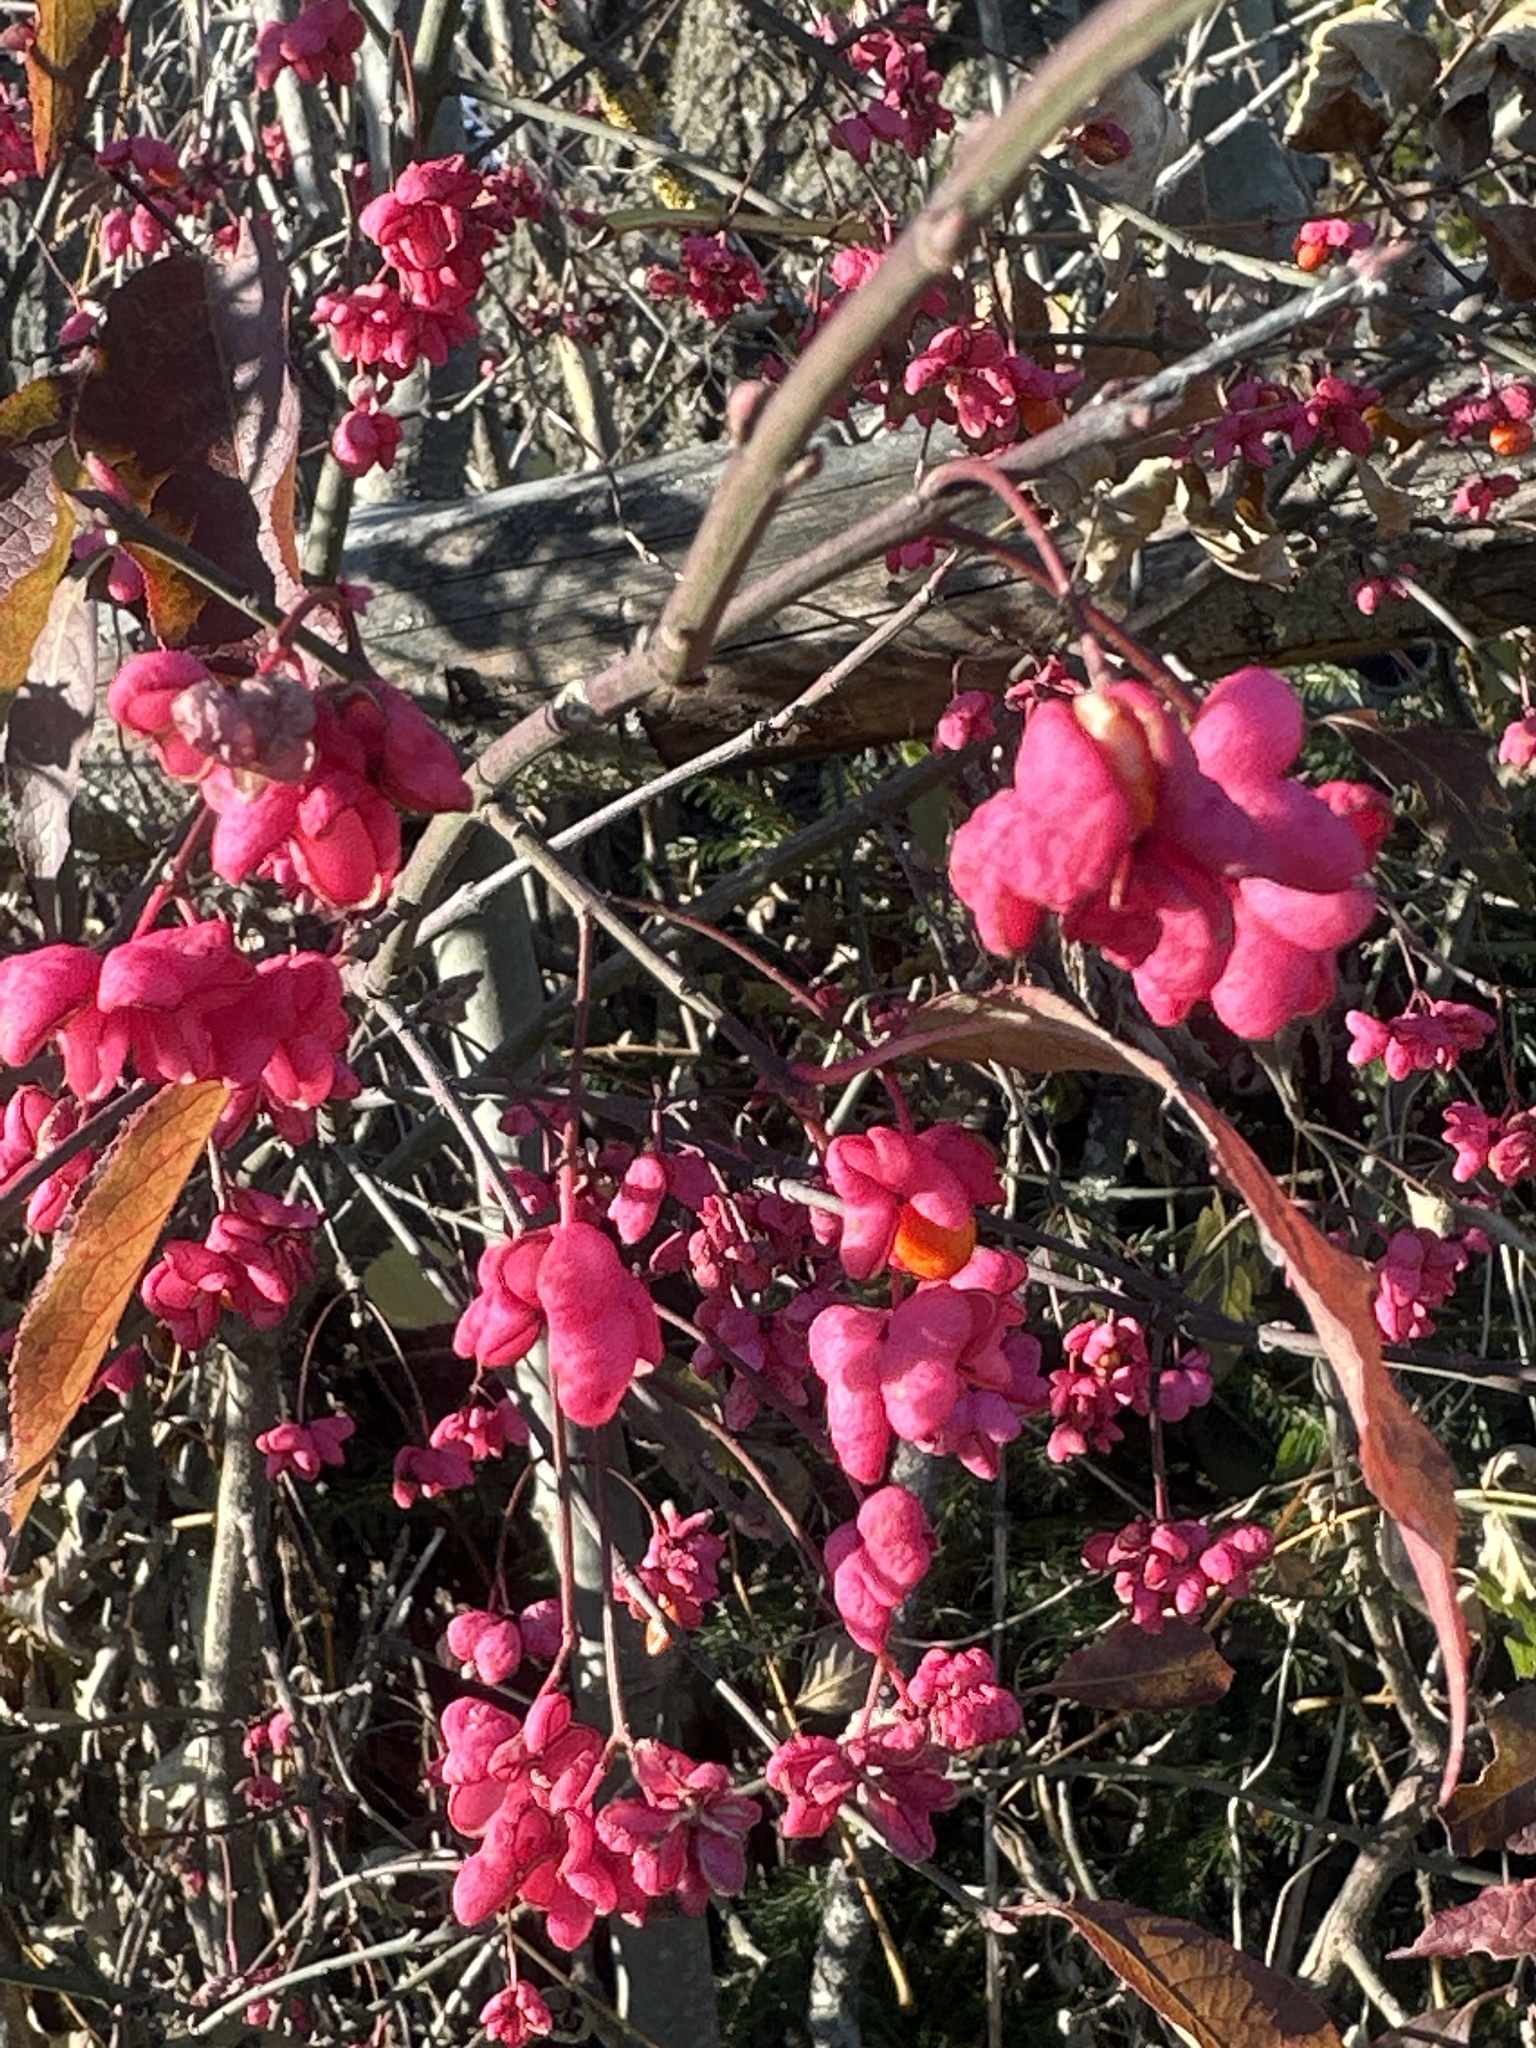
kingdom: Plantae
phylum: Tracheophyta
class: Magnoliopsida
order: Celastrales
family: Celastraceae
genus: Euonymus
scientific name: Euonymus europaeus
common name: Spindle
